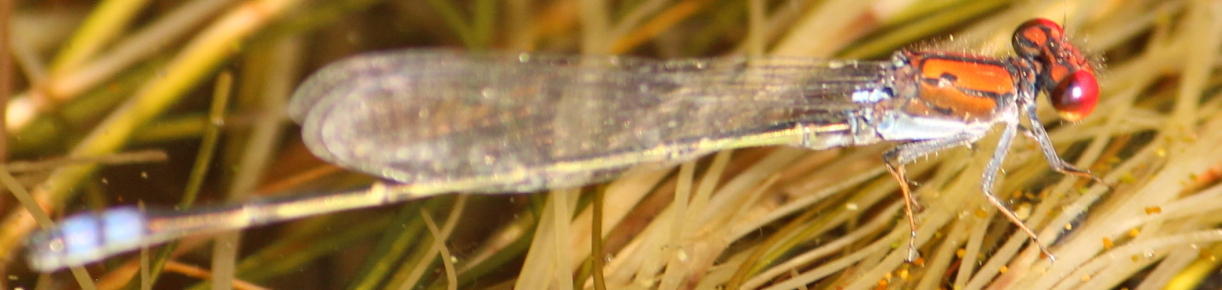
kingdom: Animalia
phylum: Arthropoda
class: Insecta
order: Odonata
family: Coenagrionidae
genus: Pseudagrion
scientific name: Pseudagrion massaicum
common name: Masai sprite
